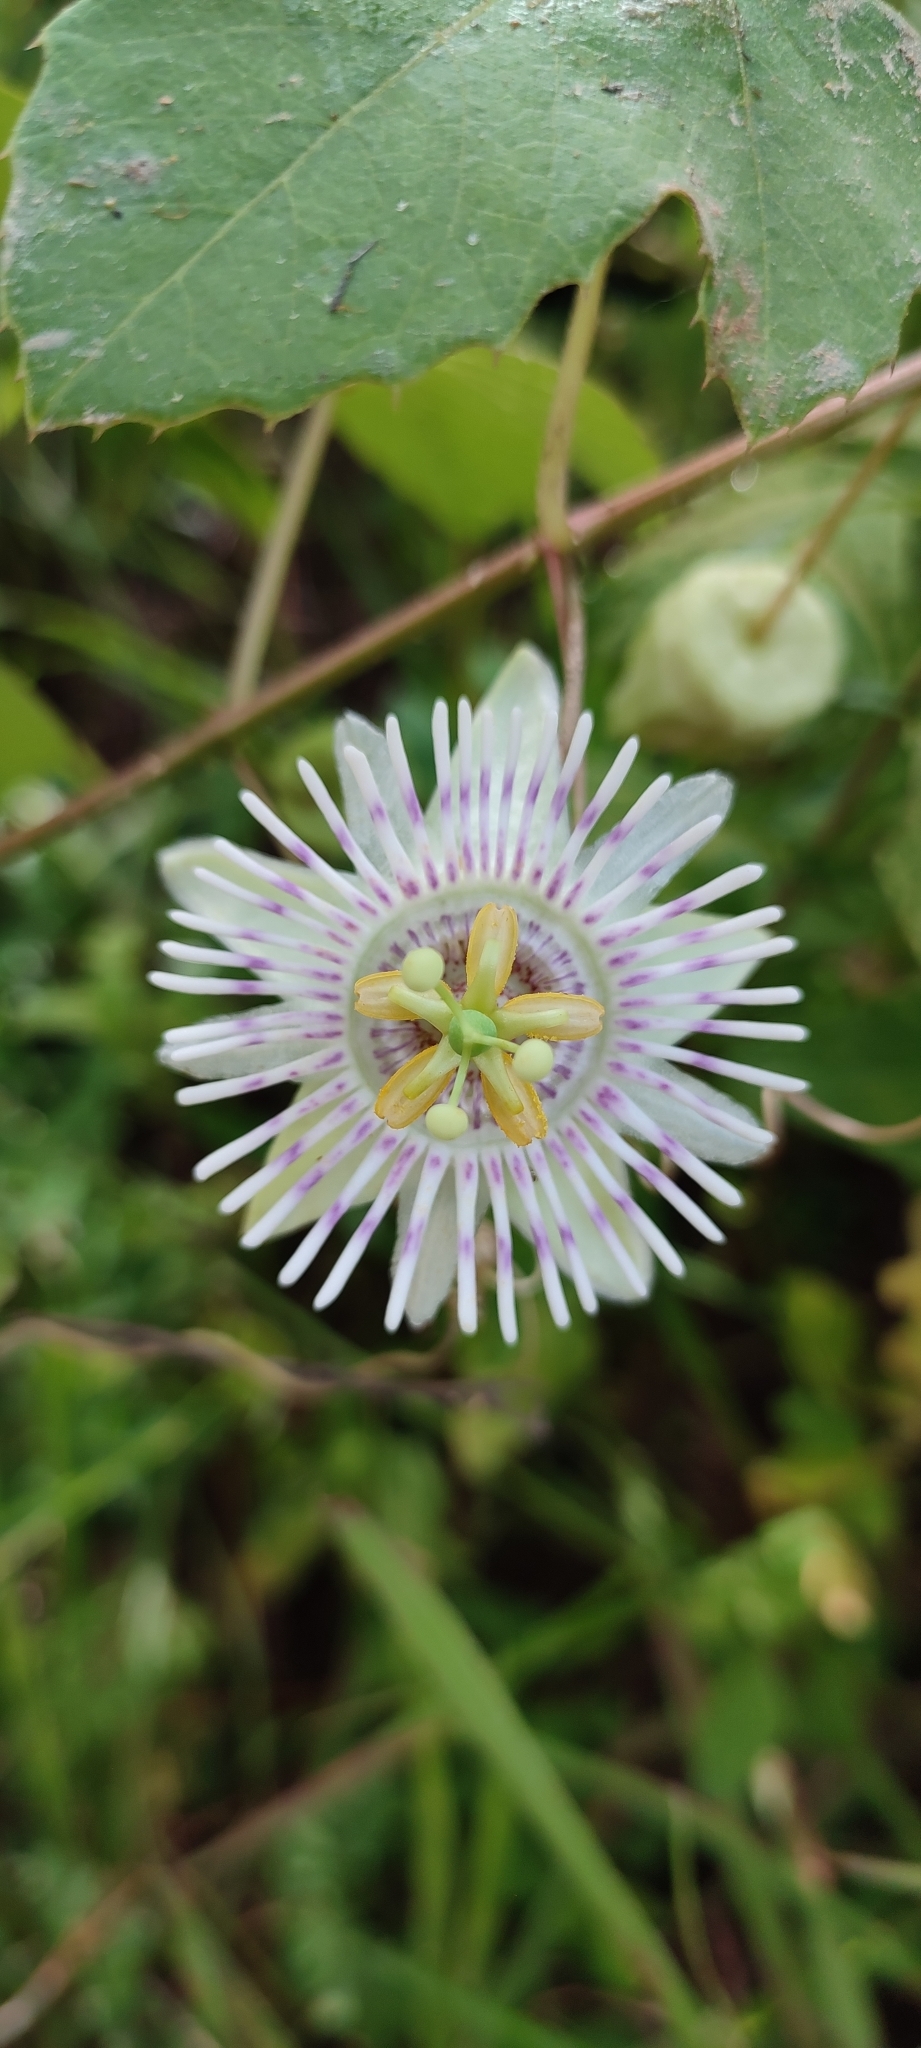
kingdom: Plantae
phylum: Tracheophyta
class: Magnoliopsida
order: Malpighiales
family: Passifloraceae
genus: Passiflora
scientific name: Passiflora colimensis
